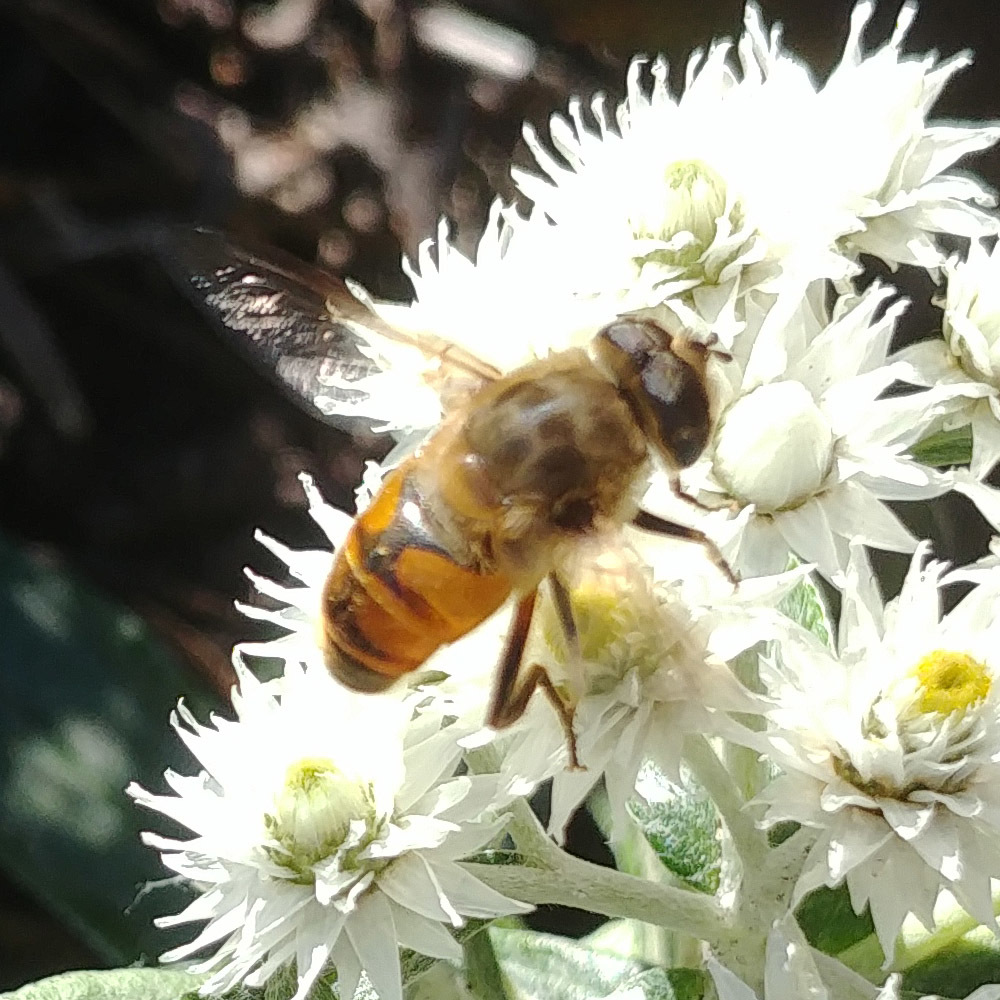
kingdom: Animalia
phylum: Arthropoda
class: Insecta
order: Diptera
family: Syrphidae
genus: Eristalis
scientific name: Eristalis tenax
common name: Drone fly
